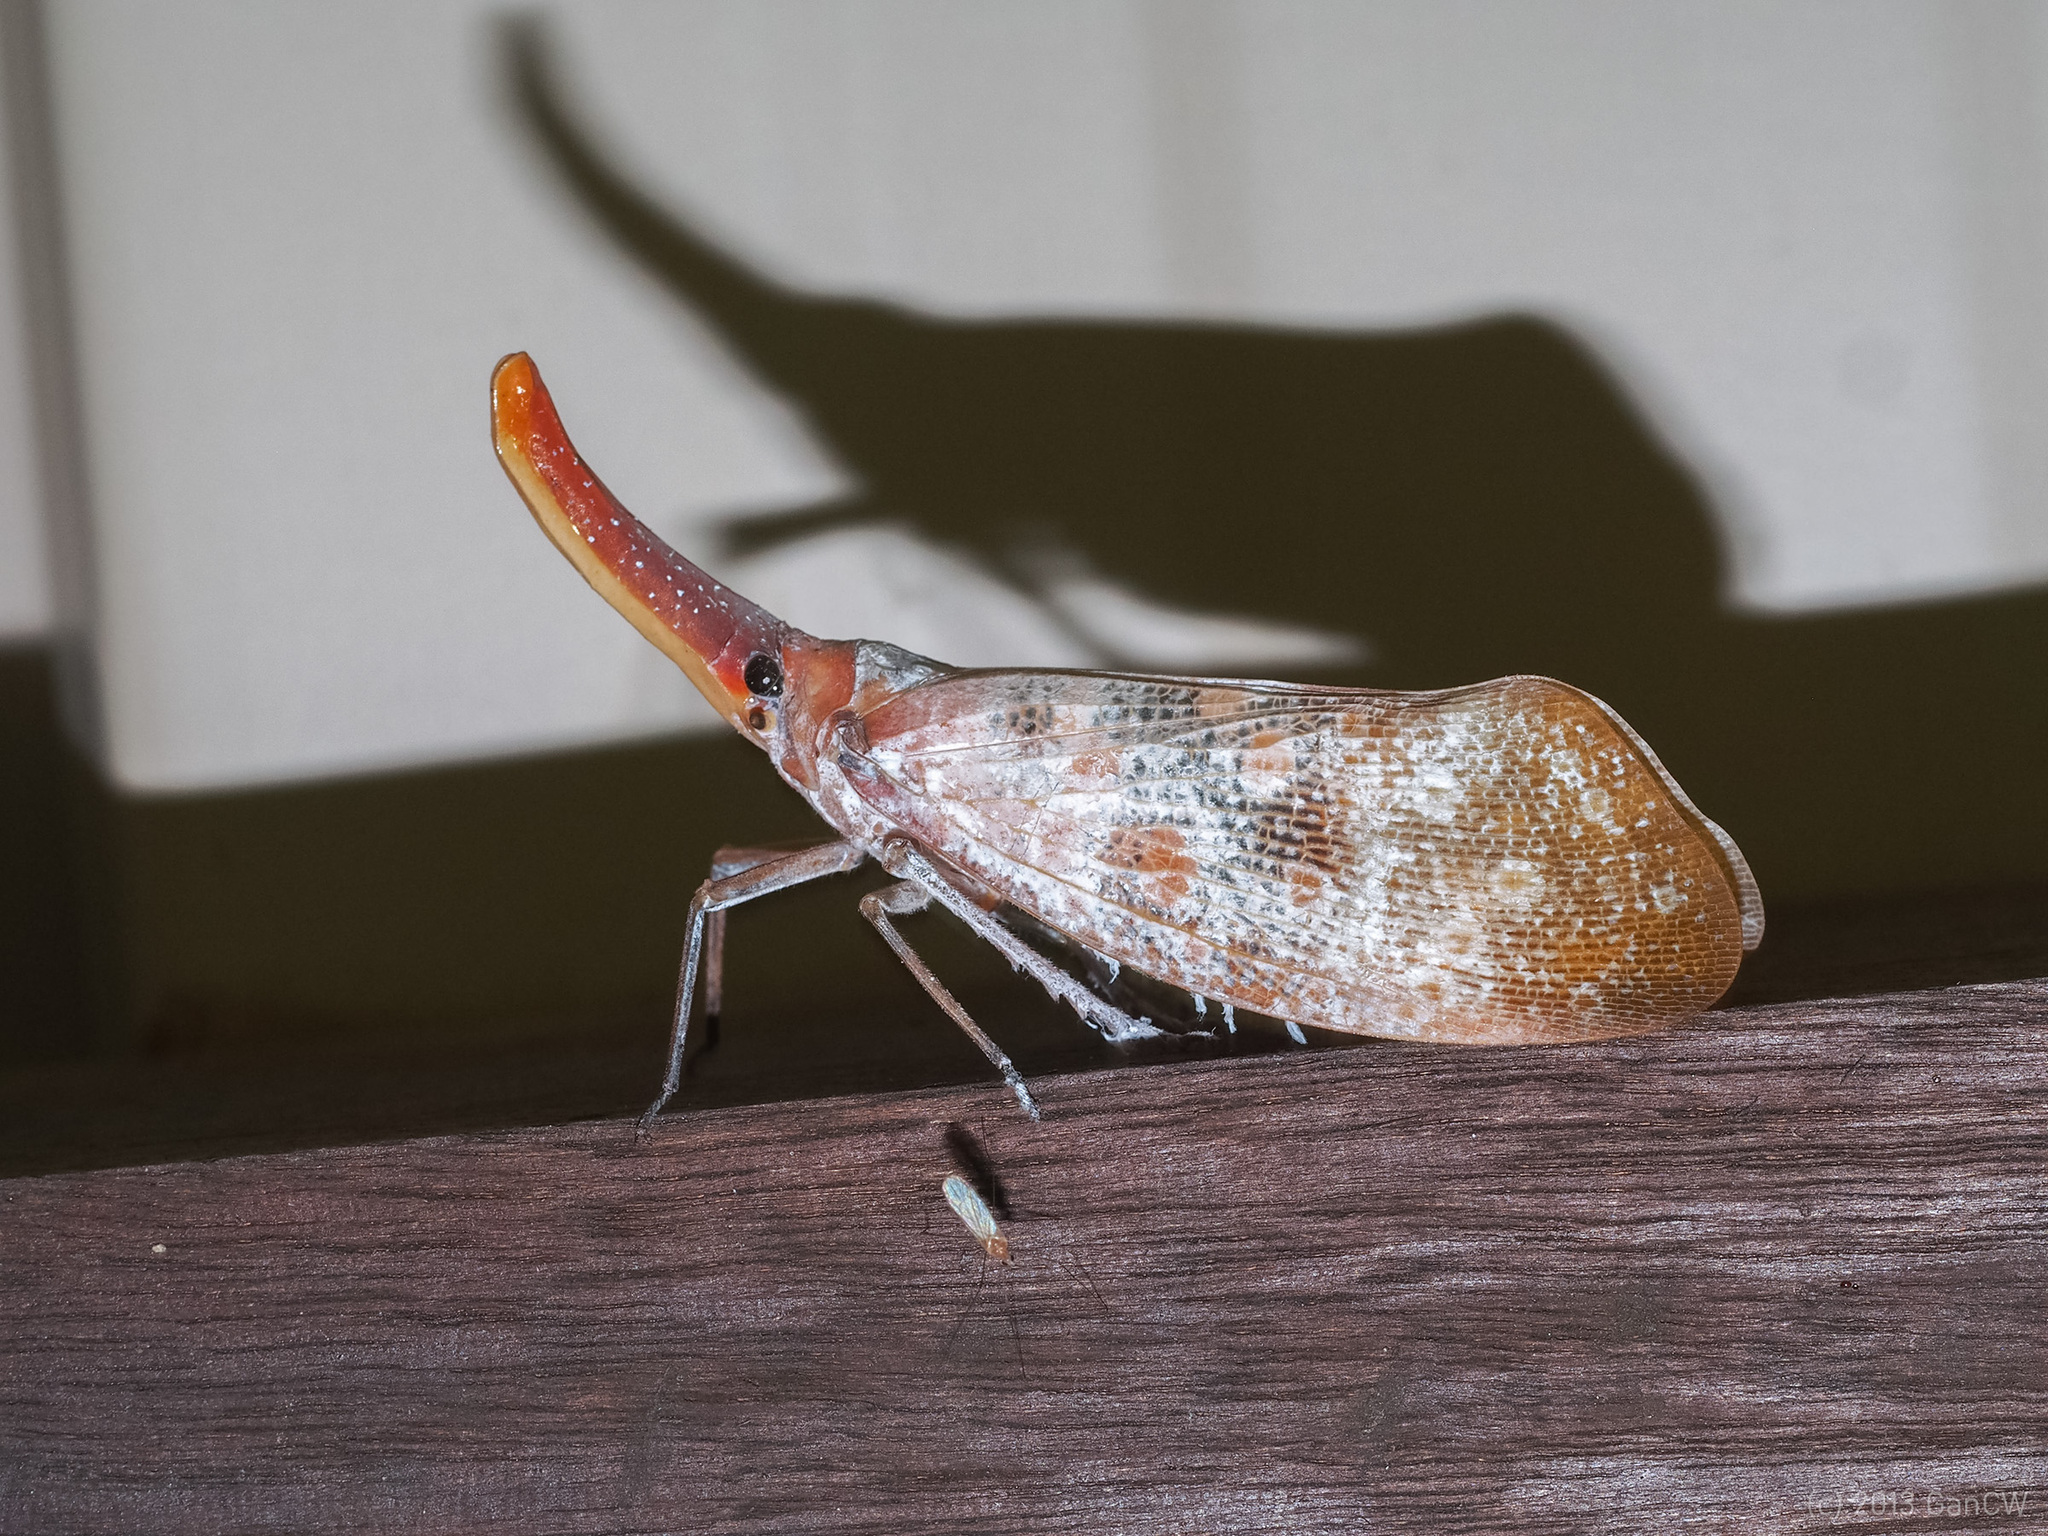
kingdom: Animalia
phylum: Arthropoda
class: Insecta
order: Hemiptera
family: Fulgoridae
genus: Pyrops
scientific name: Pyrops sultanus
